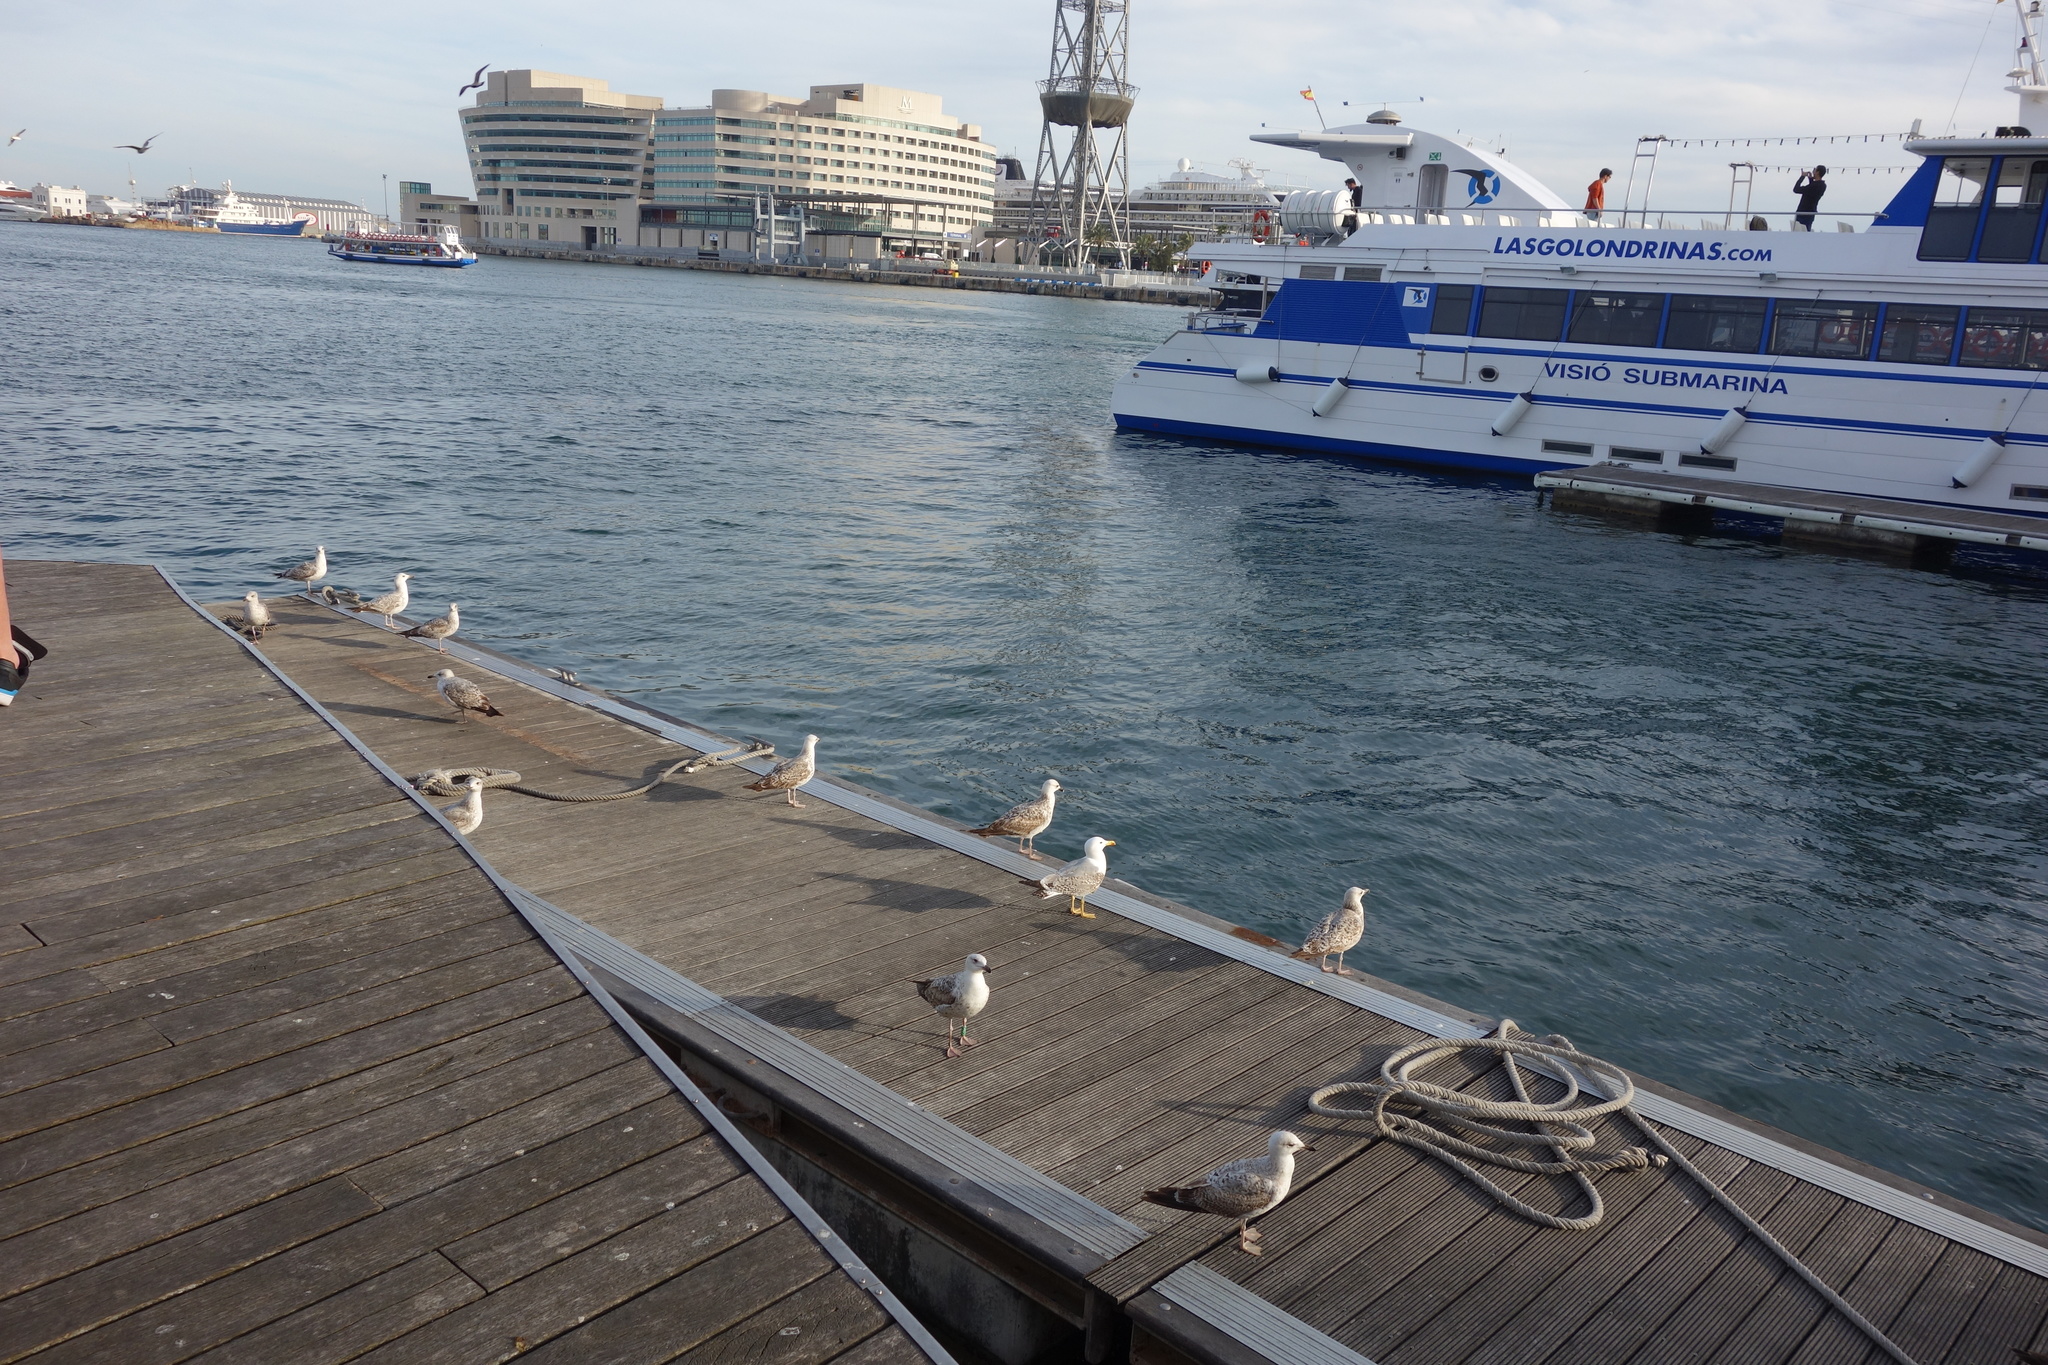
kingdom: Animalia
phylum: Chordata
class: Aves
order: Charadriiformes
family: Laridae
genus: Larus
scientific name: Larus michahellis
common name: Yellow-legged gull
